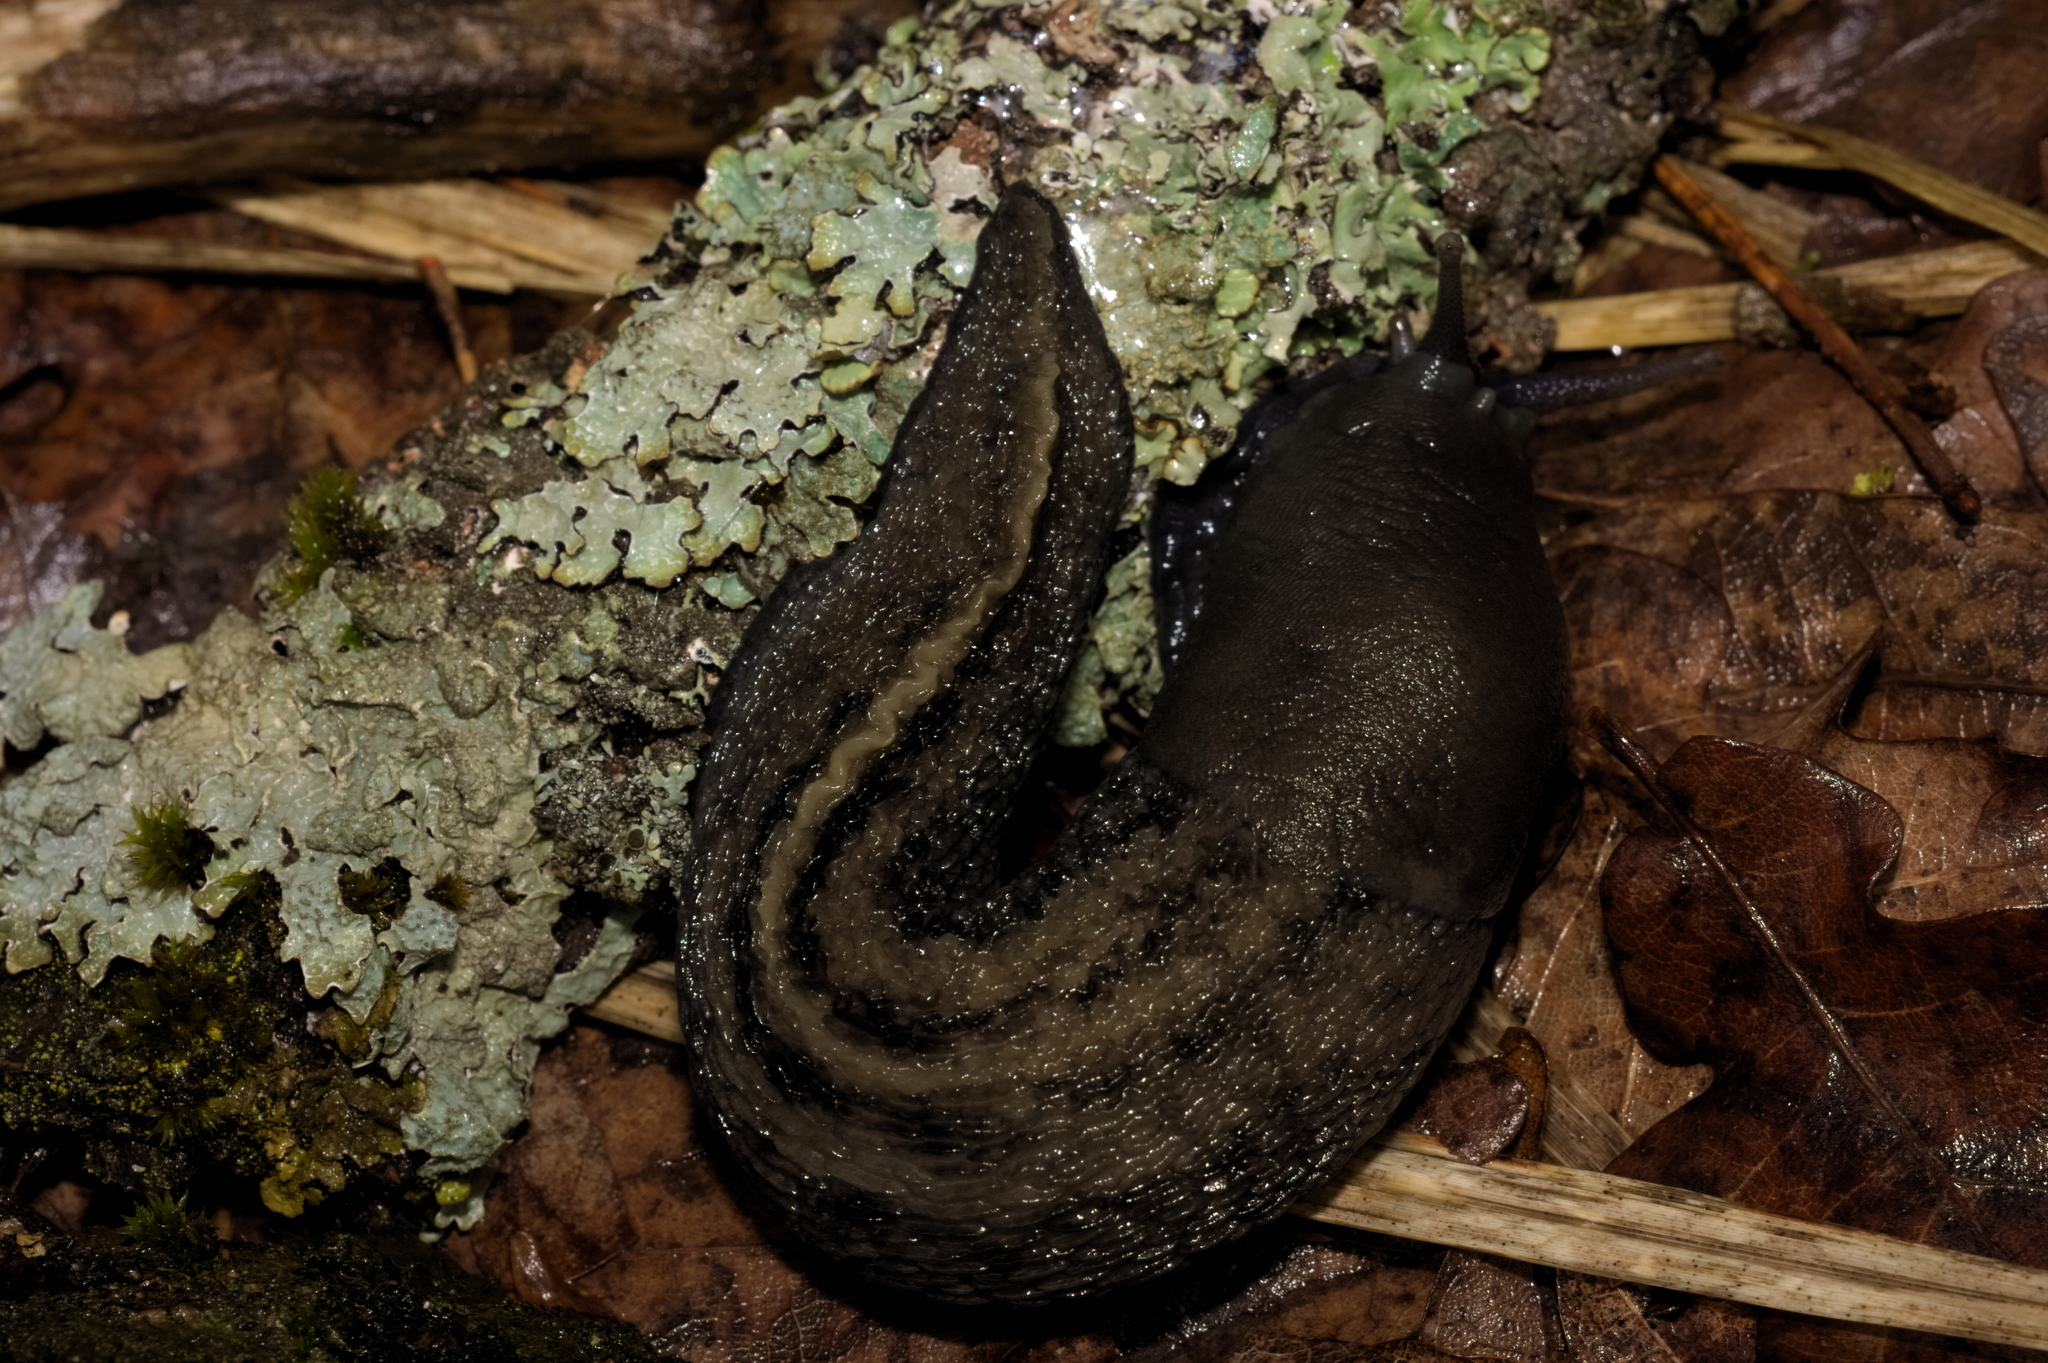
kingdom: Animalia
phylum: Mollusca
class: Gastropoda
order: Stylommatophora
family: Limacidae
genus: Limax
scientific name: Limax cinereoniger
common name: Ash-black slug
